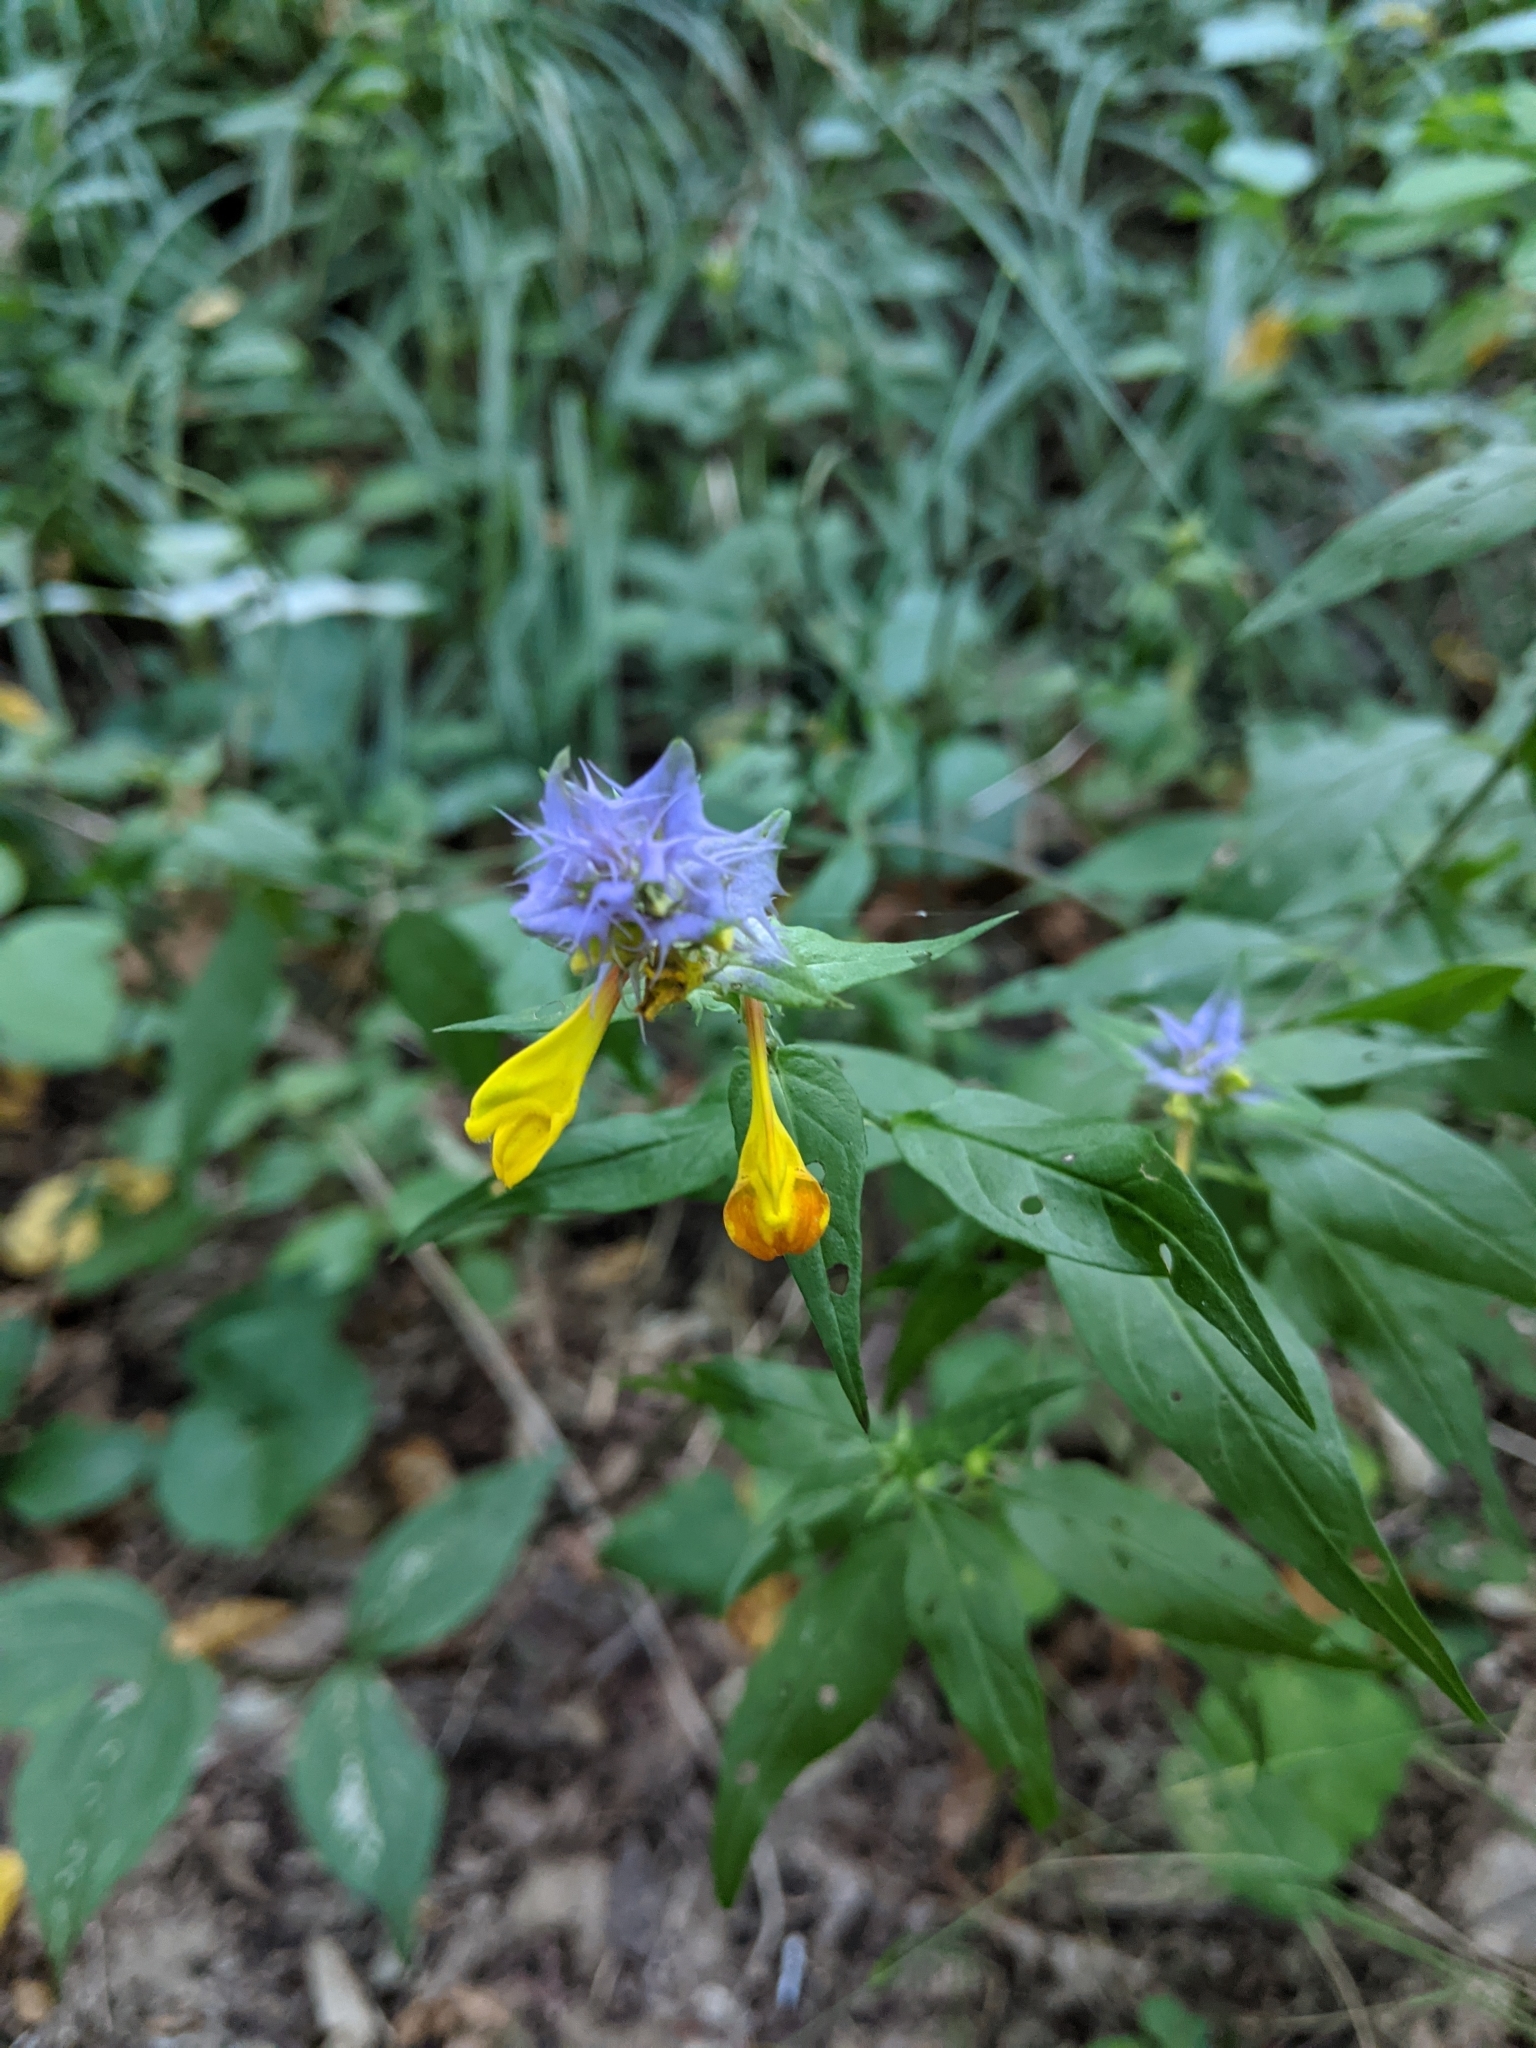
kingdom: Plantae
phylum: Tracheophyta
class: Magnoliopsida
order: Lamiales
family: Orobanchaceae
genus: Melampyrum
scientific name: Melampyrum nemorosum
